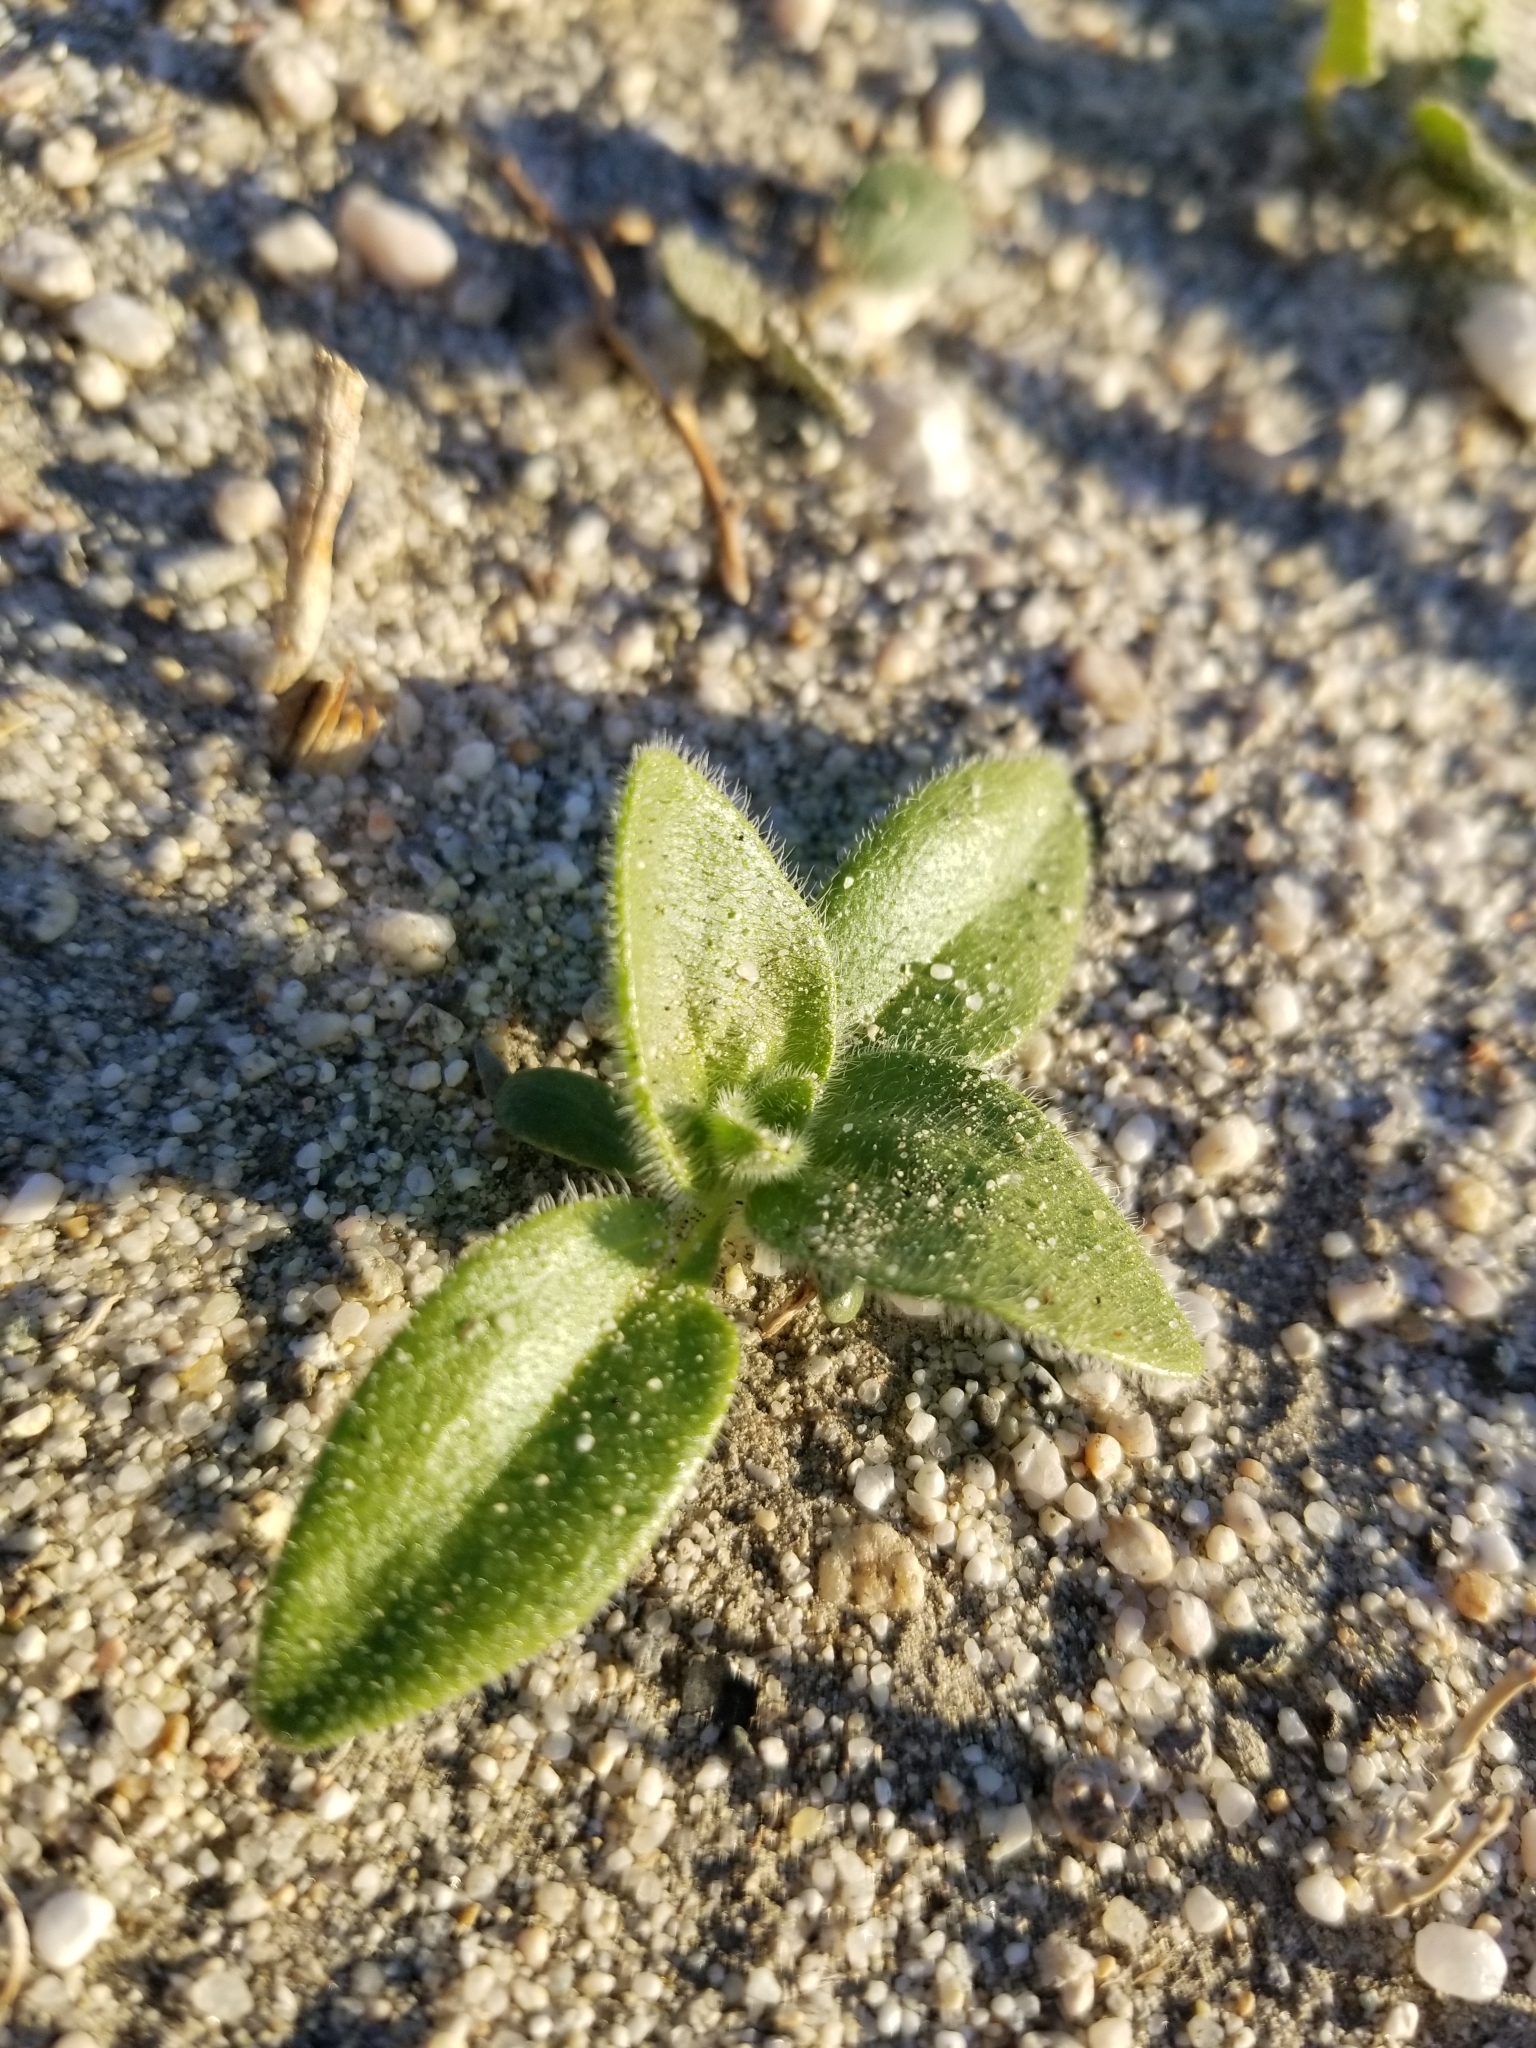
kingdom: Plantae
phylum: Tracheophyta
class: Magnoliopsida
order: Asterales
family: Asteraceae
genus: Geraea
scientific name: Geraea canescens
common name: Desert-gold
